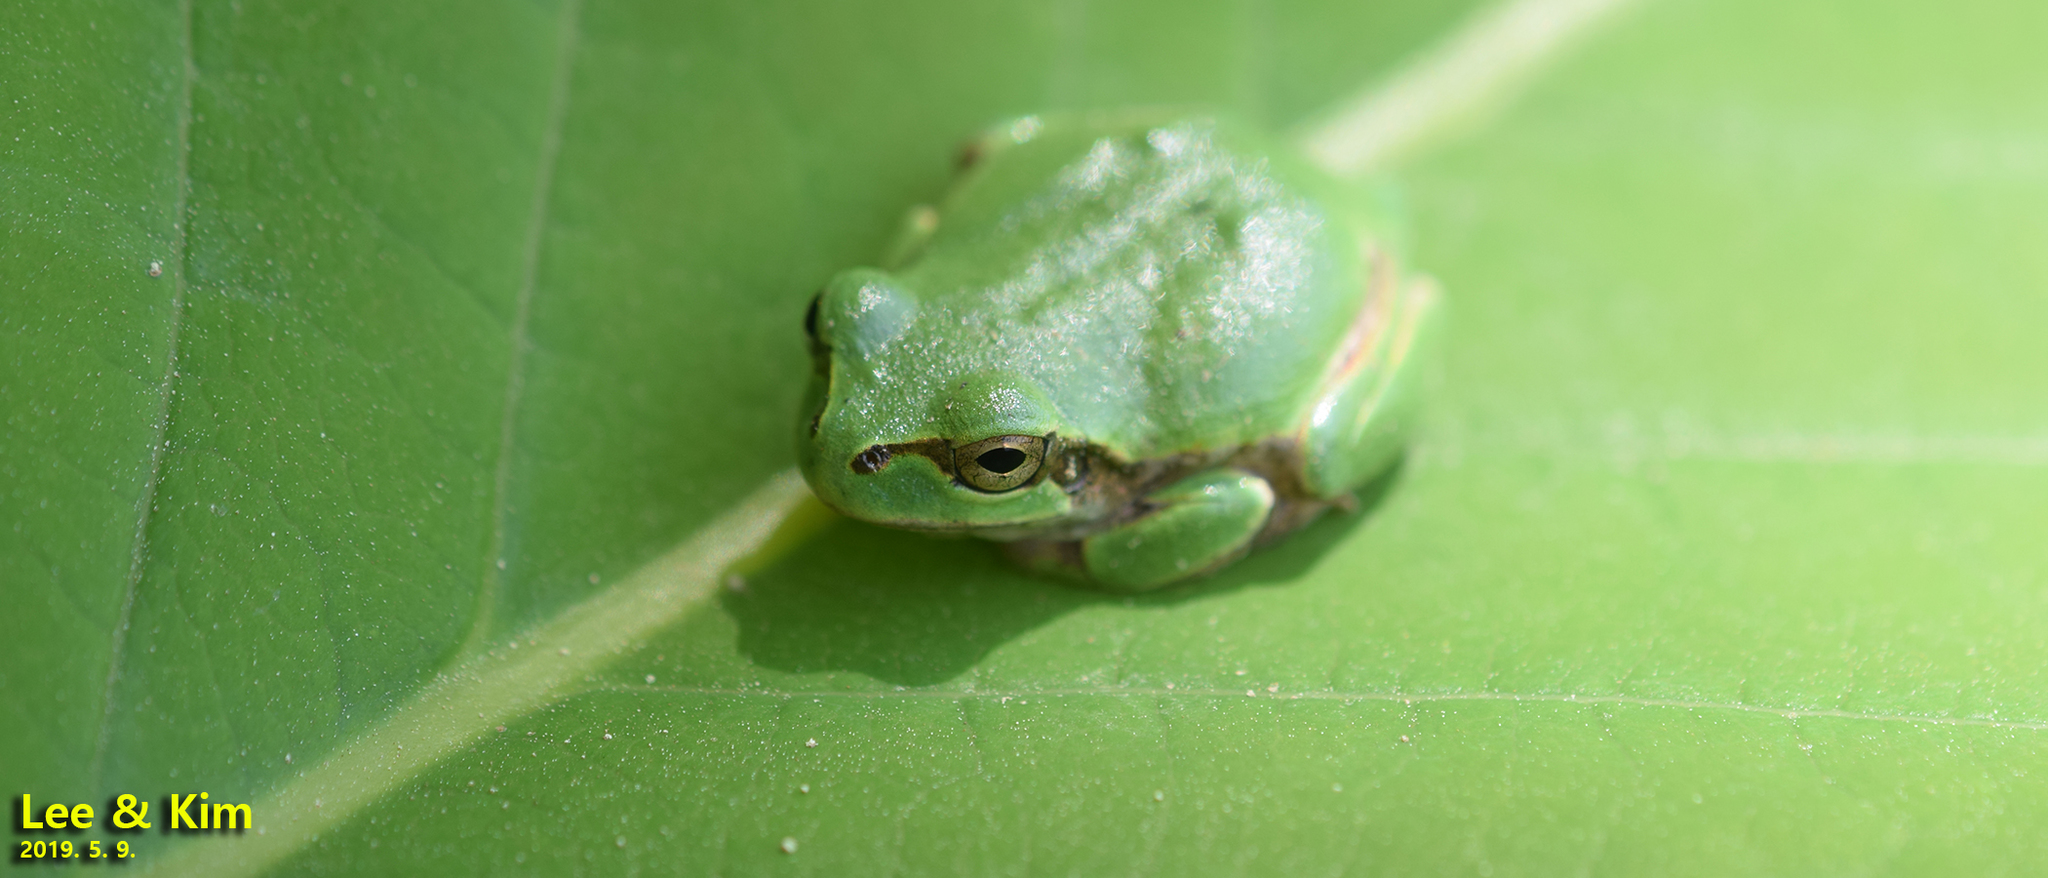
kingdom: Animalia
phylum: Chordata
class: Amphibia
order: Anura
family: Hylidae
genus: Dryophytes
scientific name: Dryophytes japonicus
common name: Japanese treefrog
